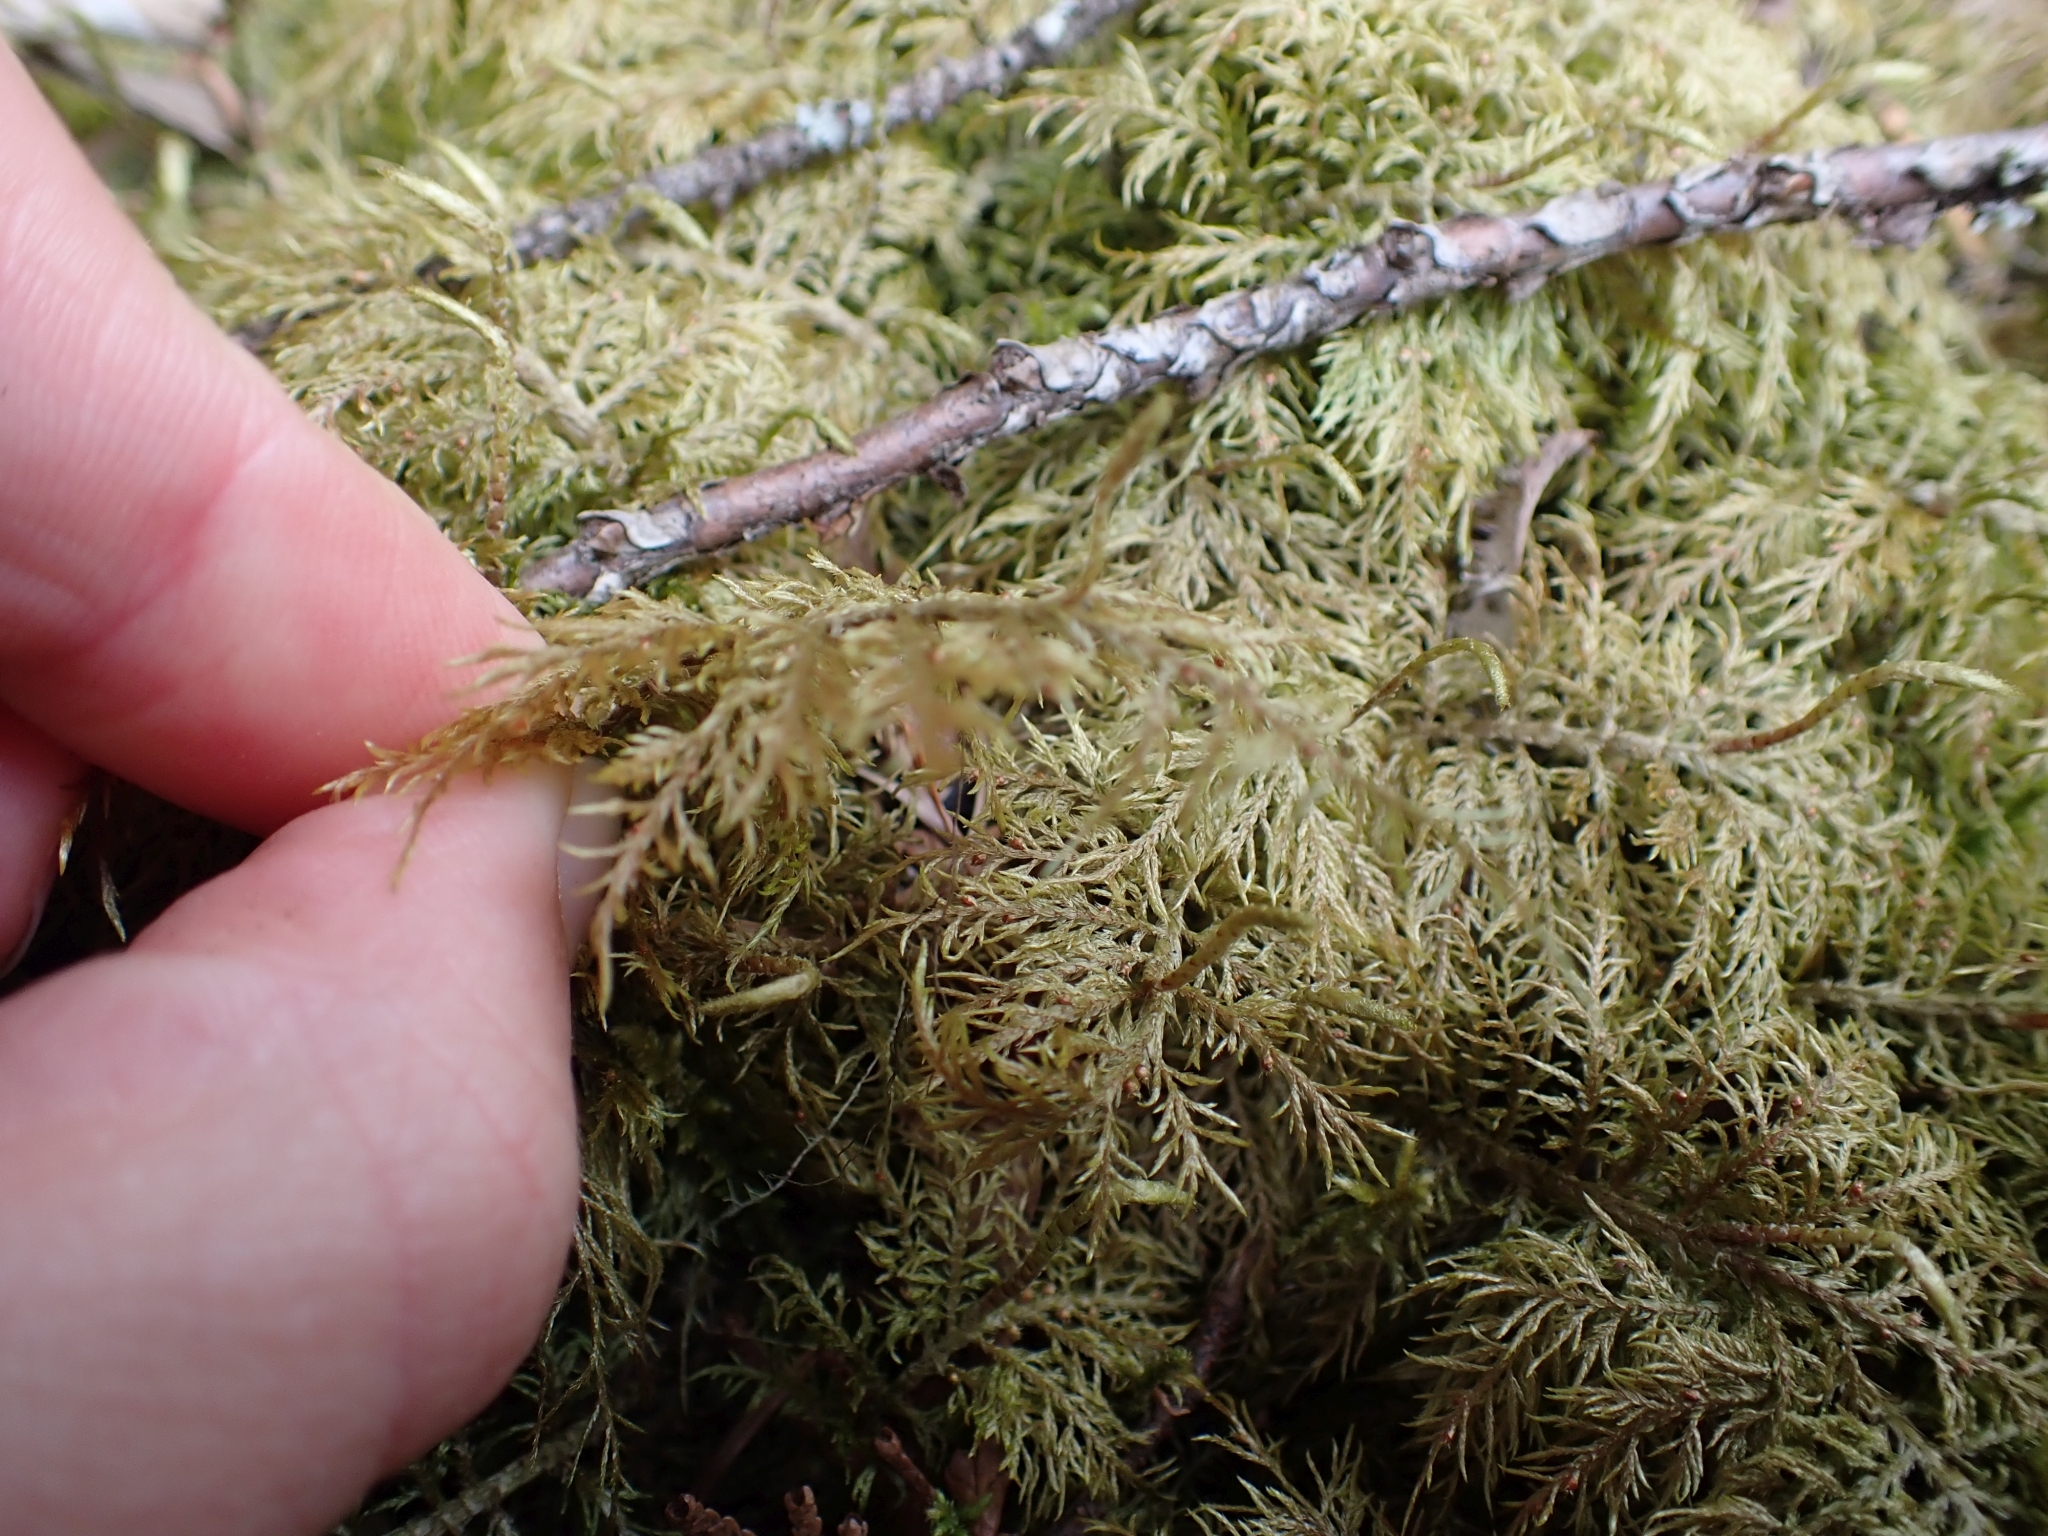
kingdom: Plantae
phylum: Bryophyta
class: Bryopsida
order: Hypnales
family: Hylocomiaceae
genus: Hylocomium
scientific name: Hylocomium splendens
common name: Stairstep moss
